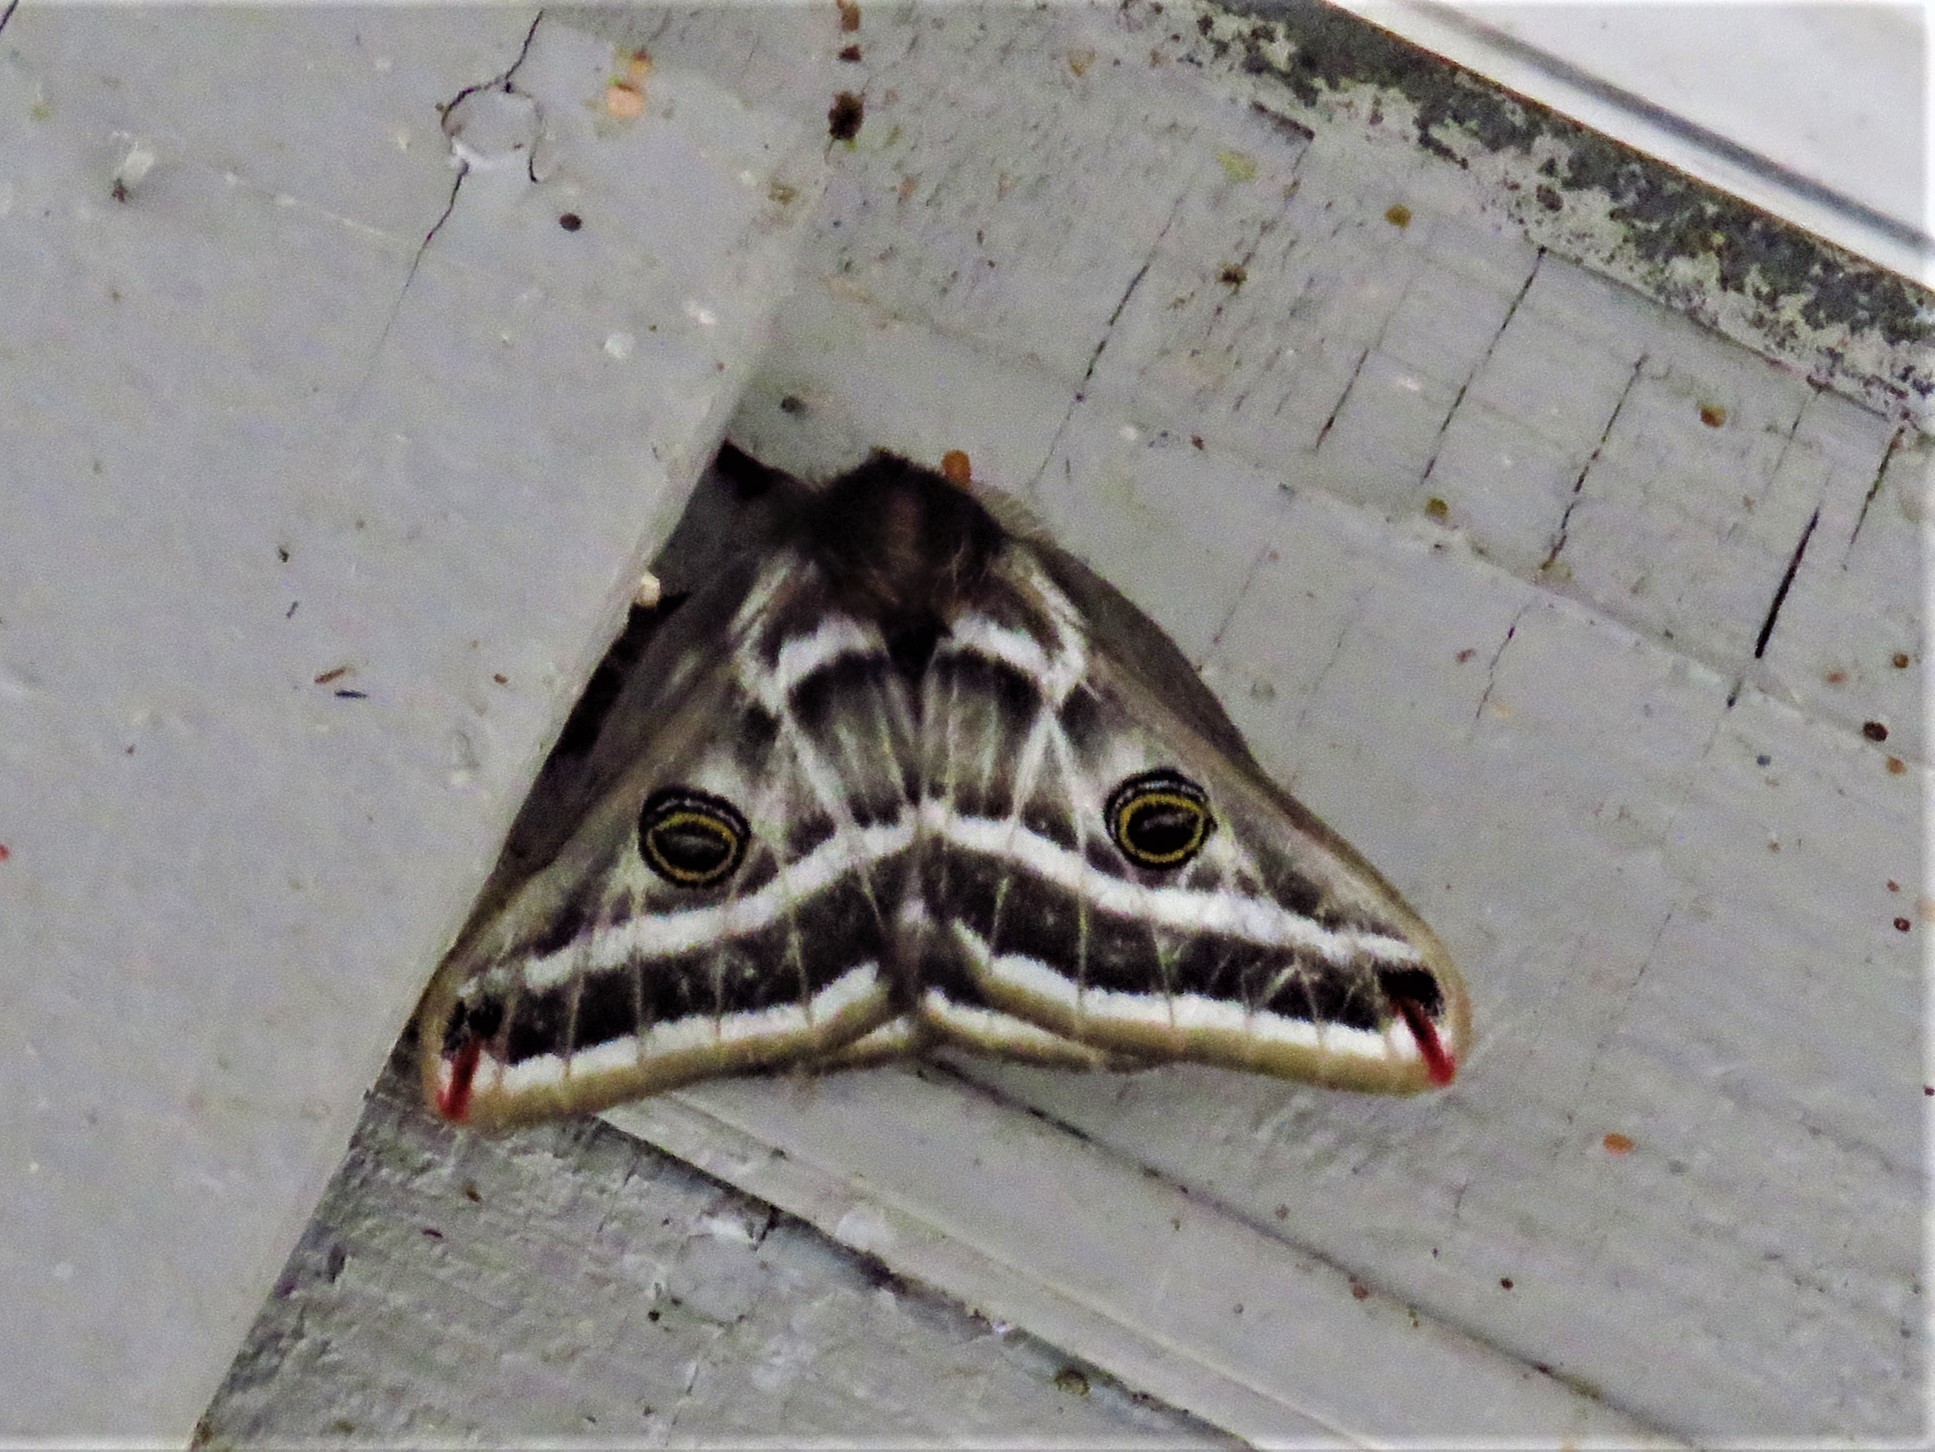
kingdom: Animalia
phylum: Arthropoda
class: Insecta
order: Lepidoptera
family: Saturniidae
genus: Agapema
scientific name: Agapema
